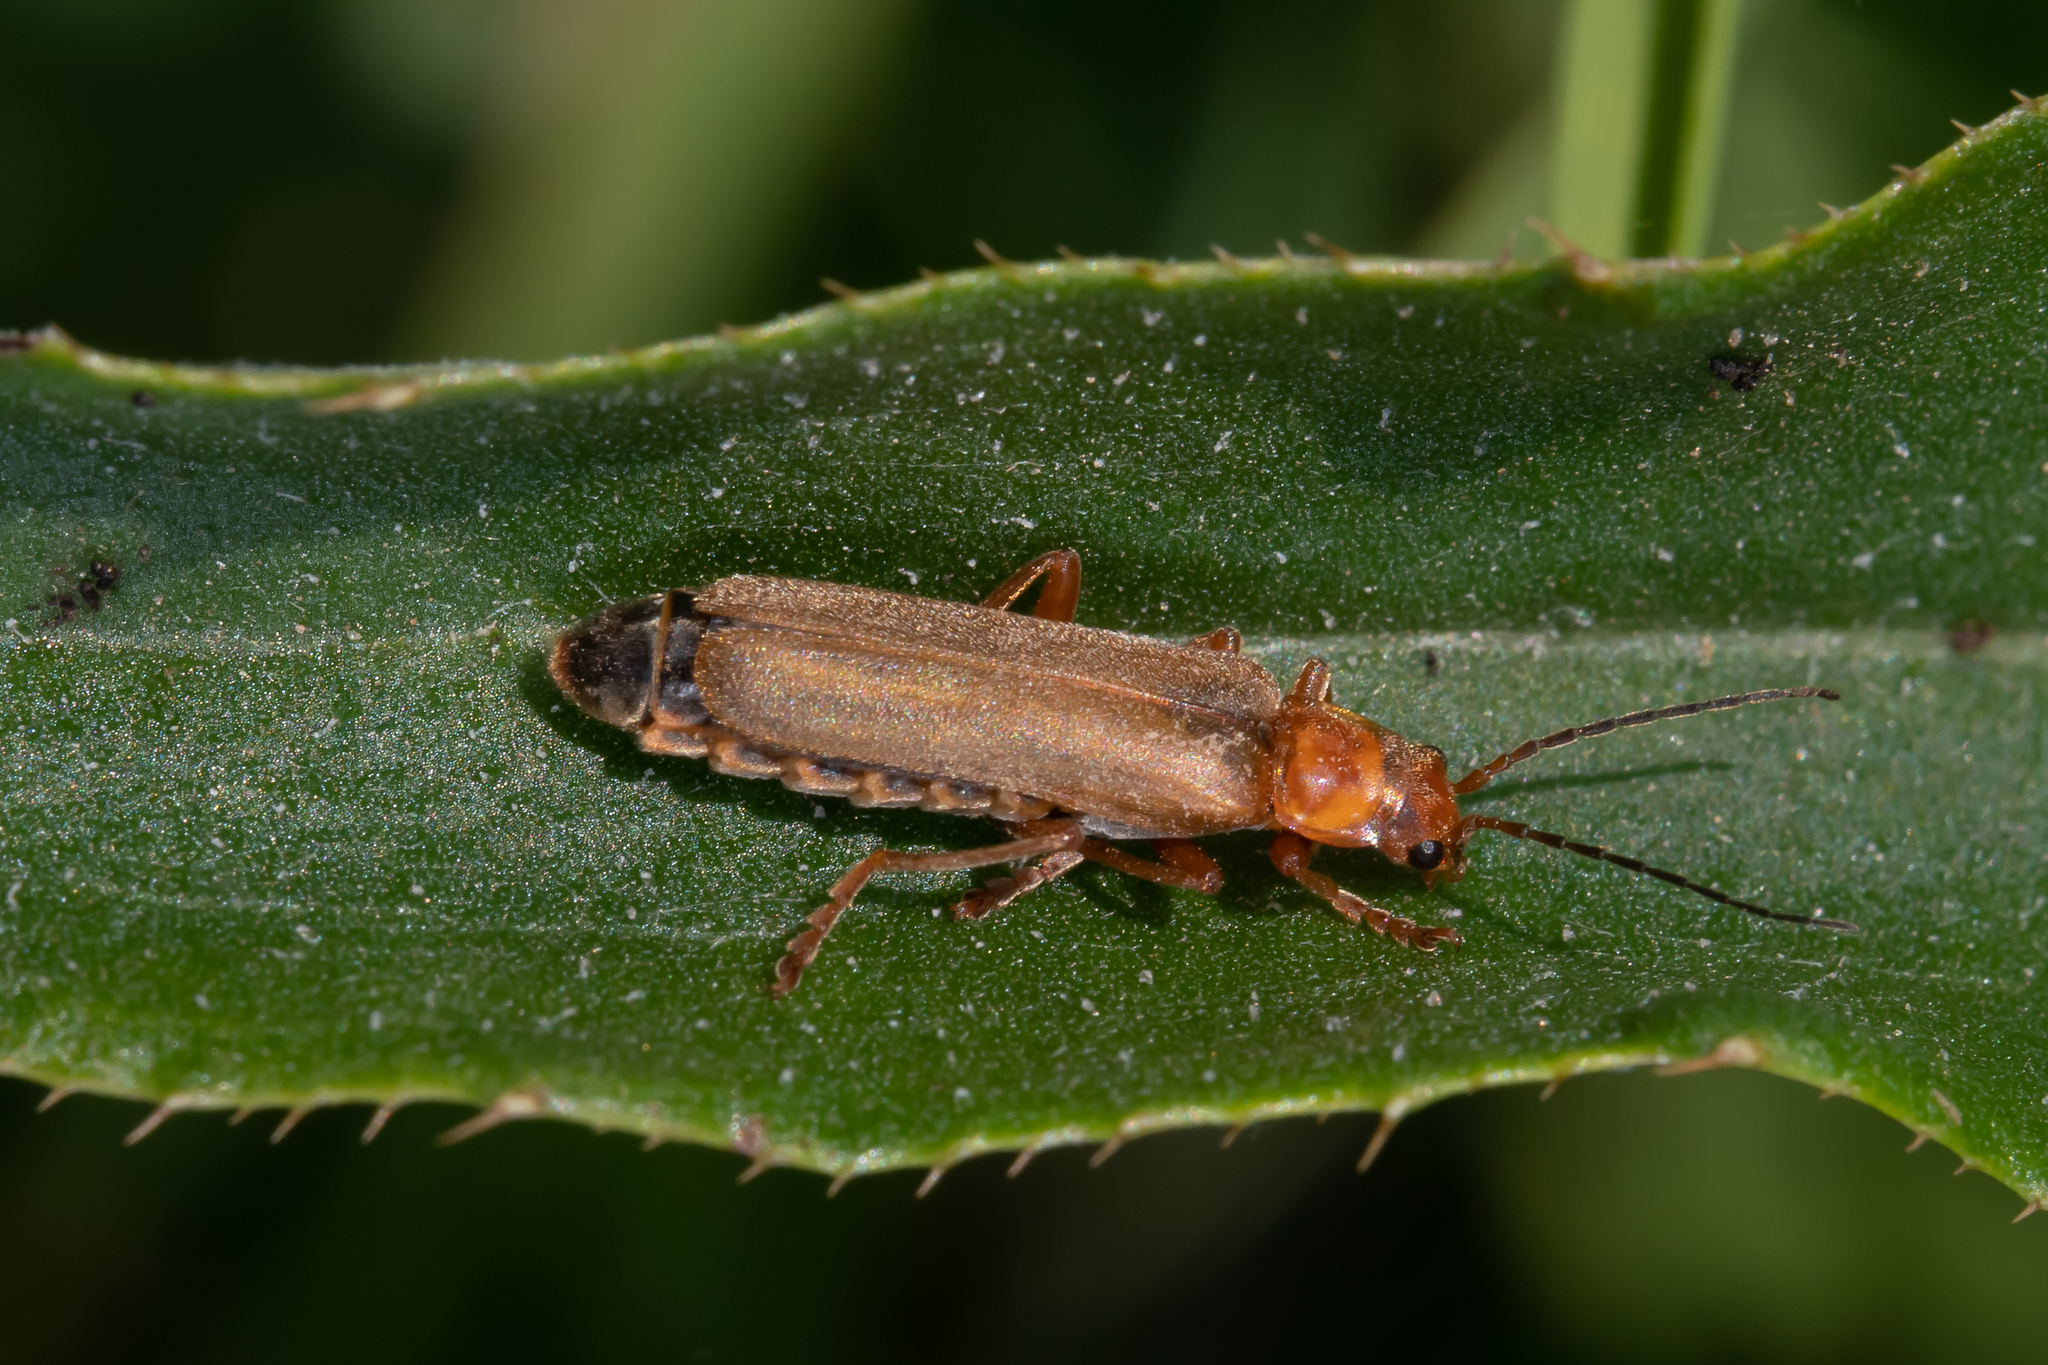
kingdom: Animalia
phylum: Arthropoda
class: Insecta
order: Coleoptera
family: Cantharidae
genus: Cantharis
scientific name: Cantharis rufa
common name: Red-spotted soldier beetle
